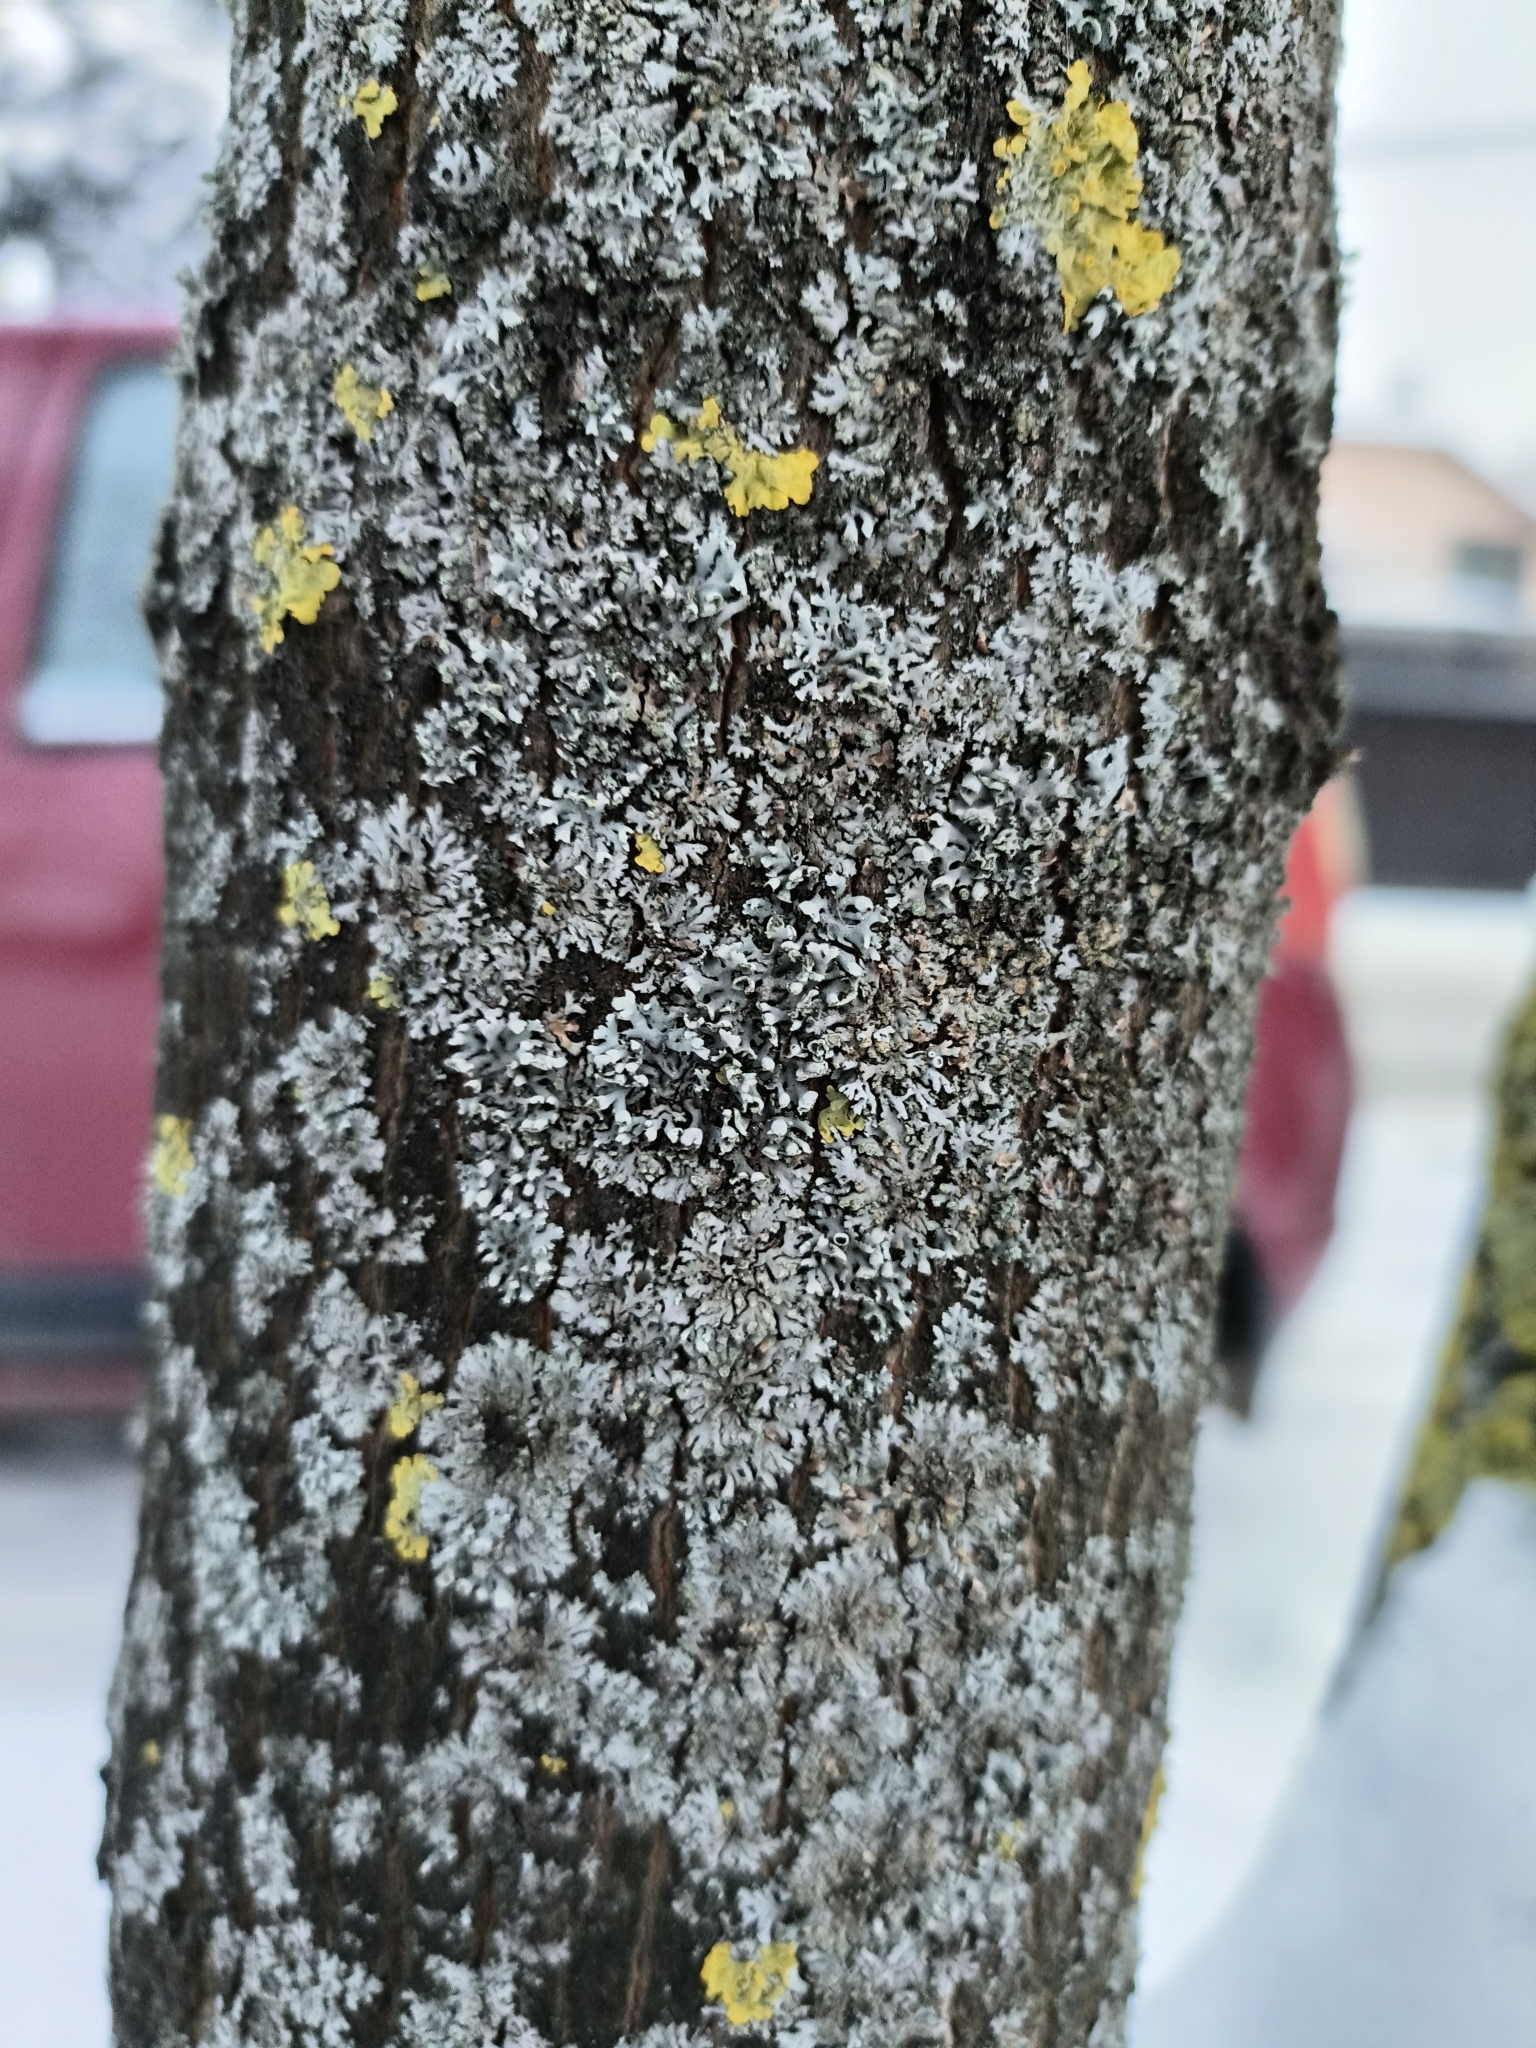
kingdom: Fungi
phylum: Ascomycota
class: Lecanoromycetes
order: Caliciales
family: Physciaceae
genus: Physcia
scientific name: Physcia adscendens
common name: Hooded rosette lichen
